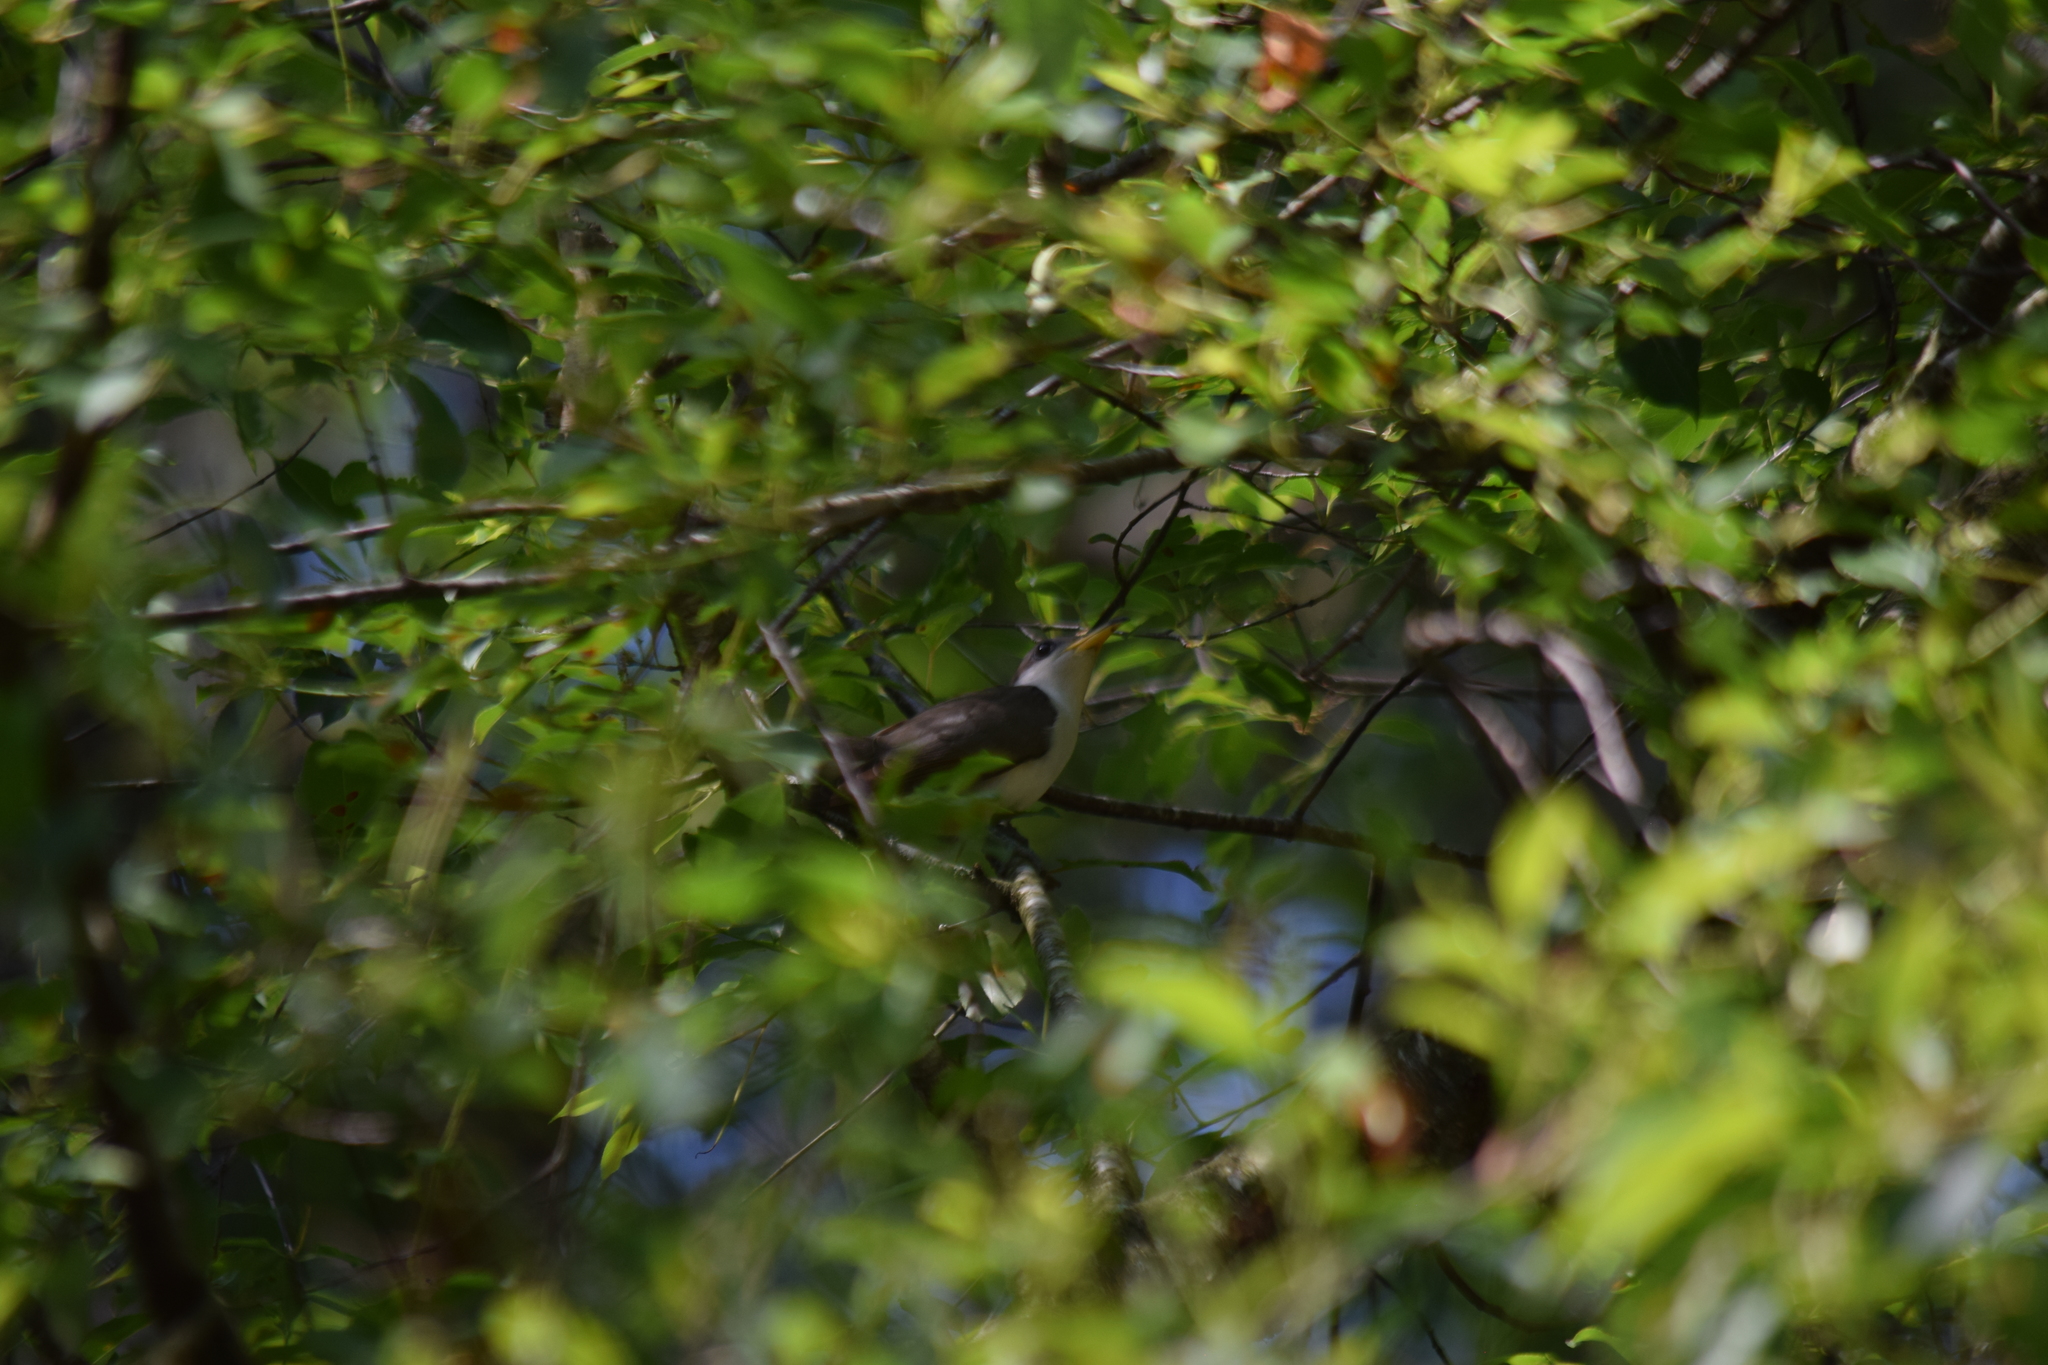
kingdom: Animalia
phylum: Chordata
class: Aves
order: Cuculiformes
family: Cuculidae
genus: Coccyzus
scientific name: Coccyzus americanus
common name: Yellow-billed cuckoo
